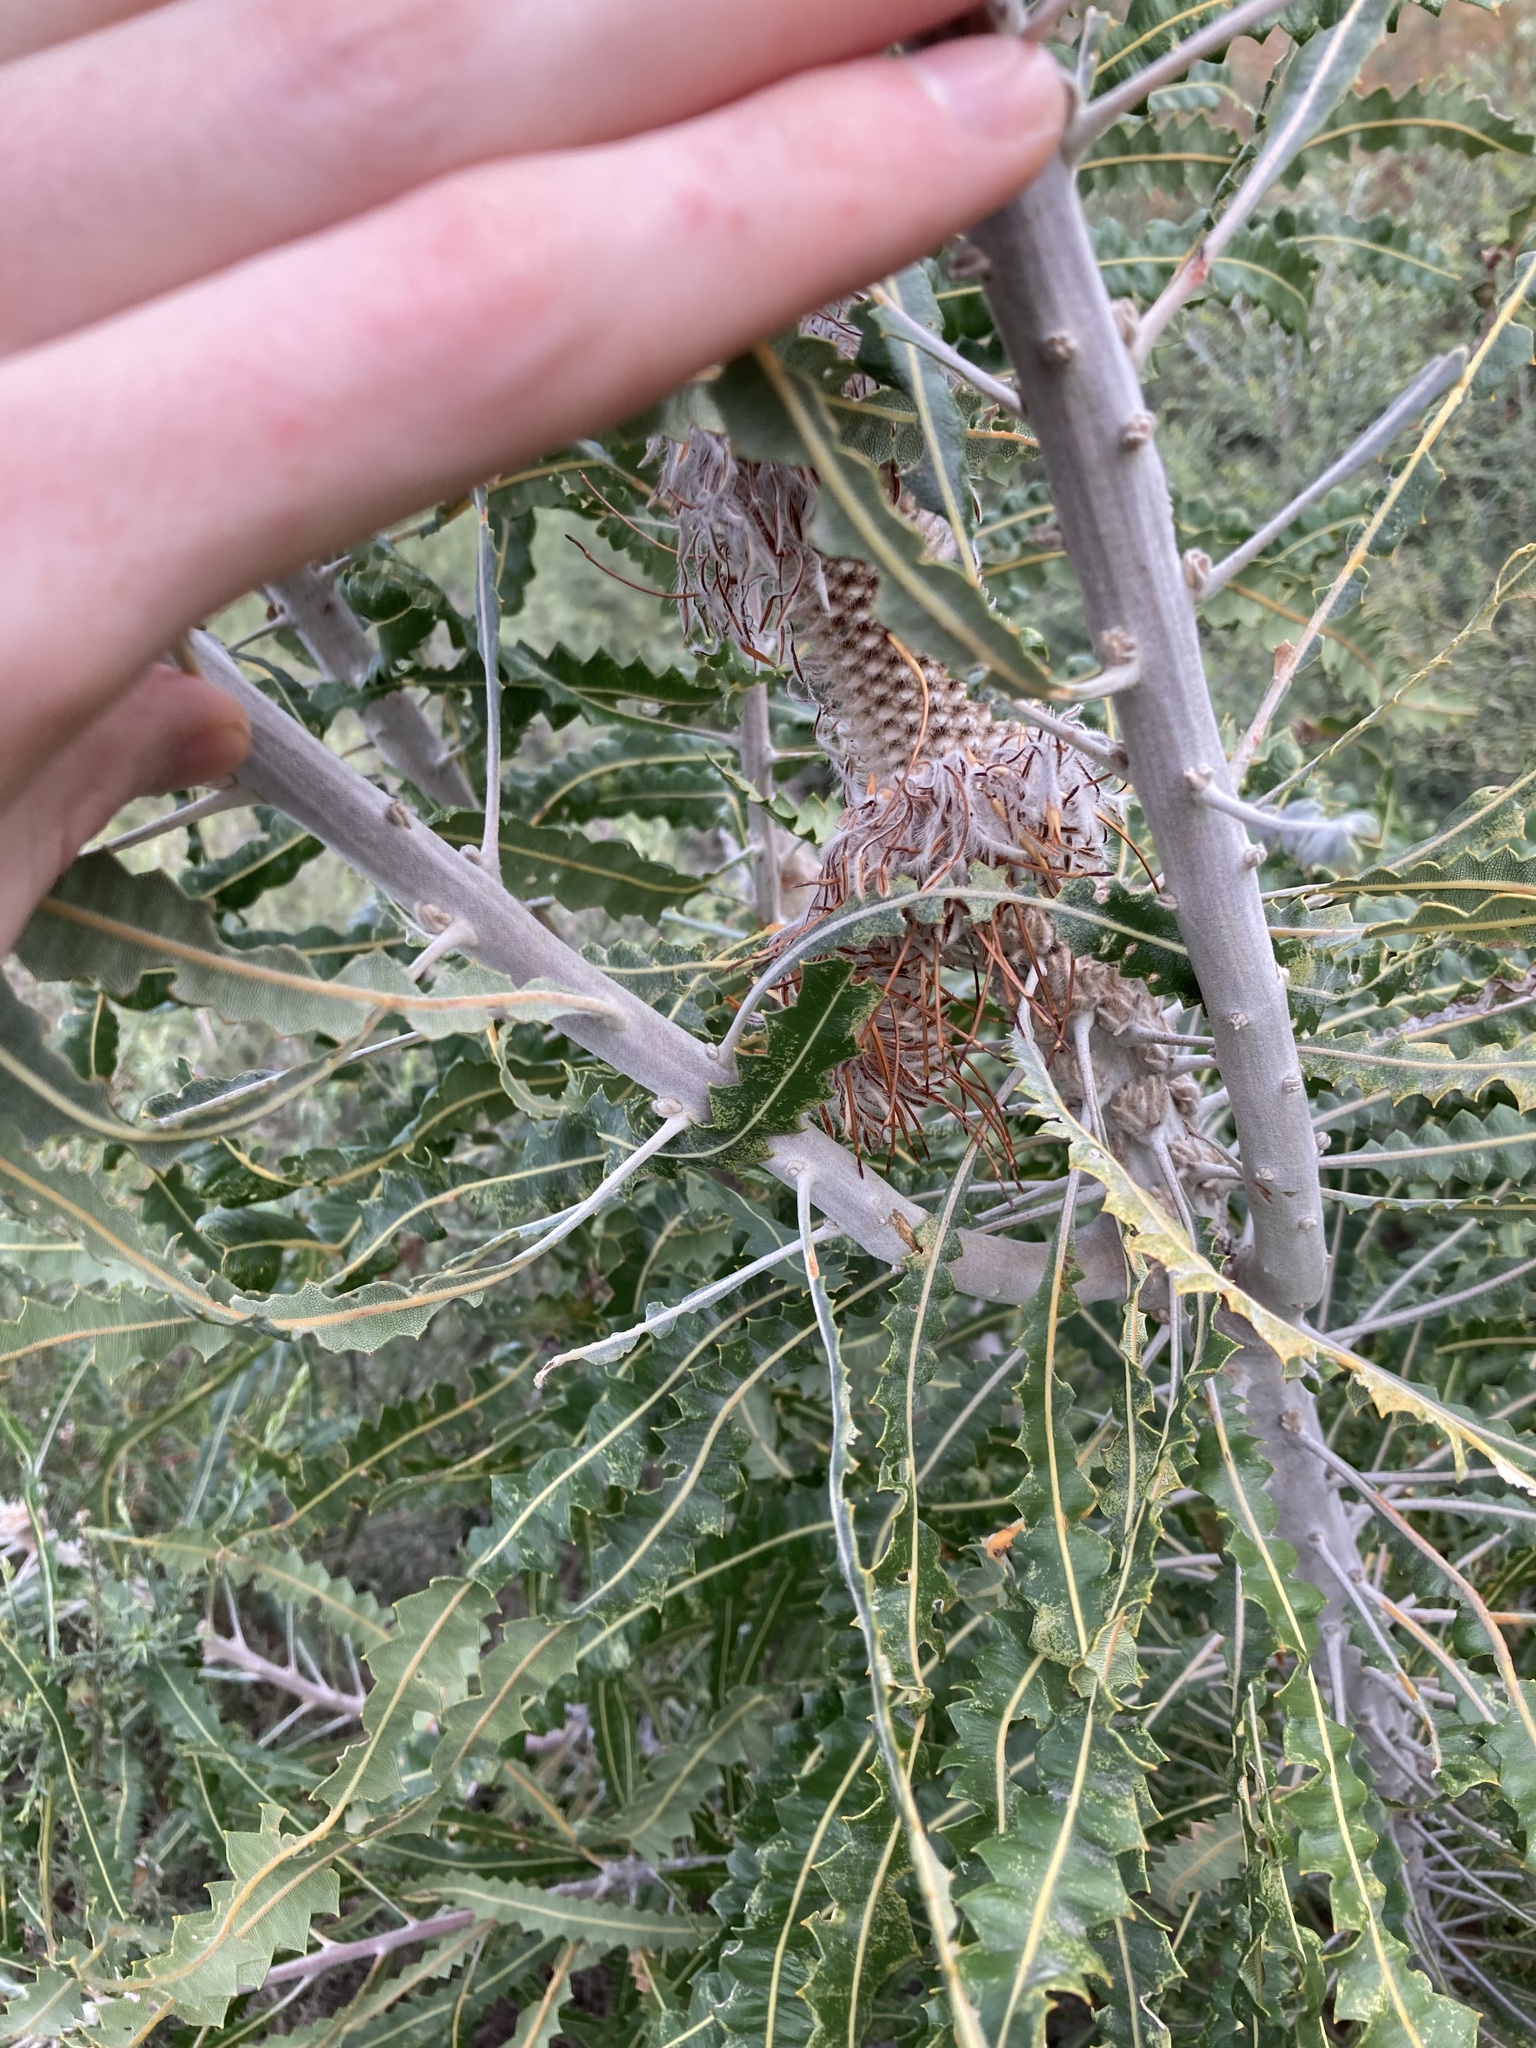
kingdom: Plantae
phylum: Tracheophyta
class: Magnoliopsida
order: Proteales
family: Proteaceae
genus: Banksia
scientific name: Banksia prionotes
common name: Acorn banksia
